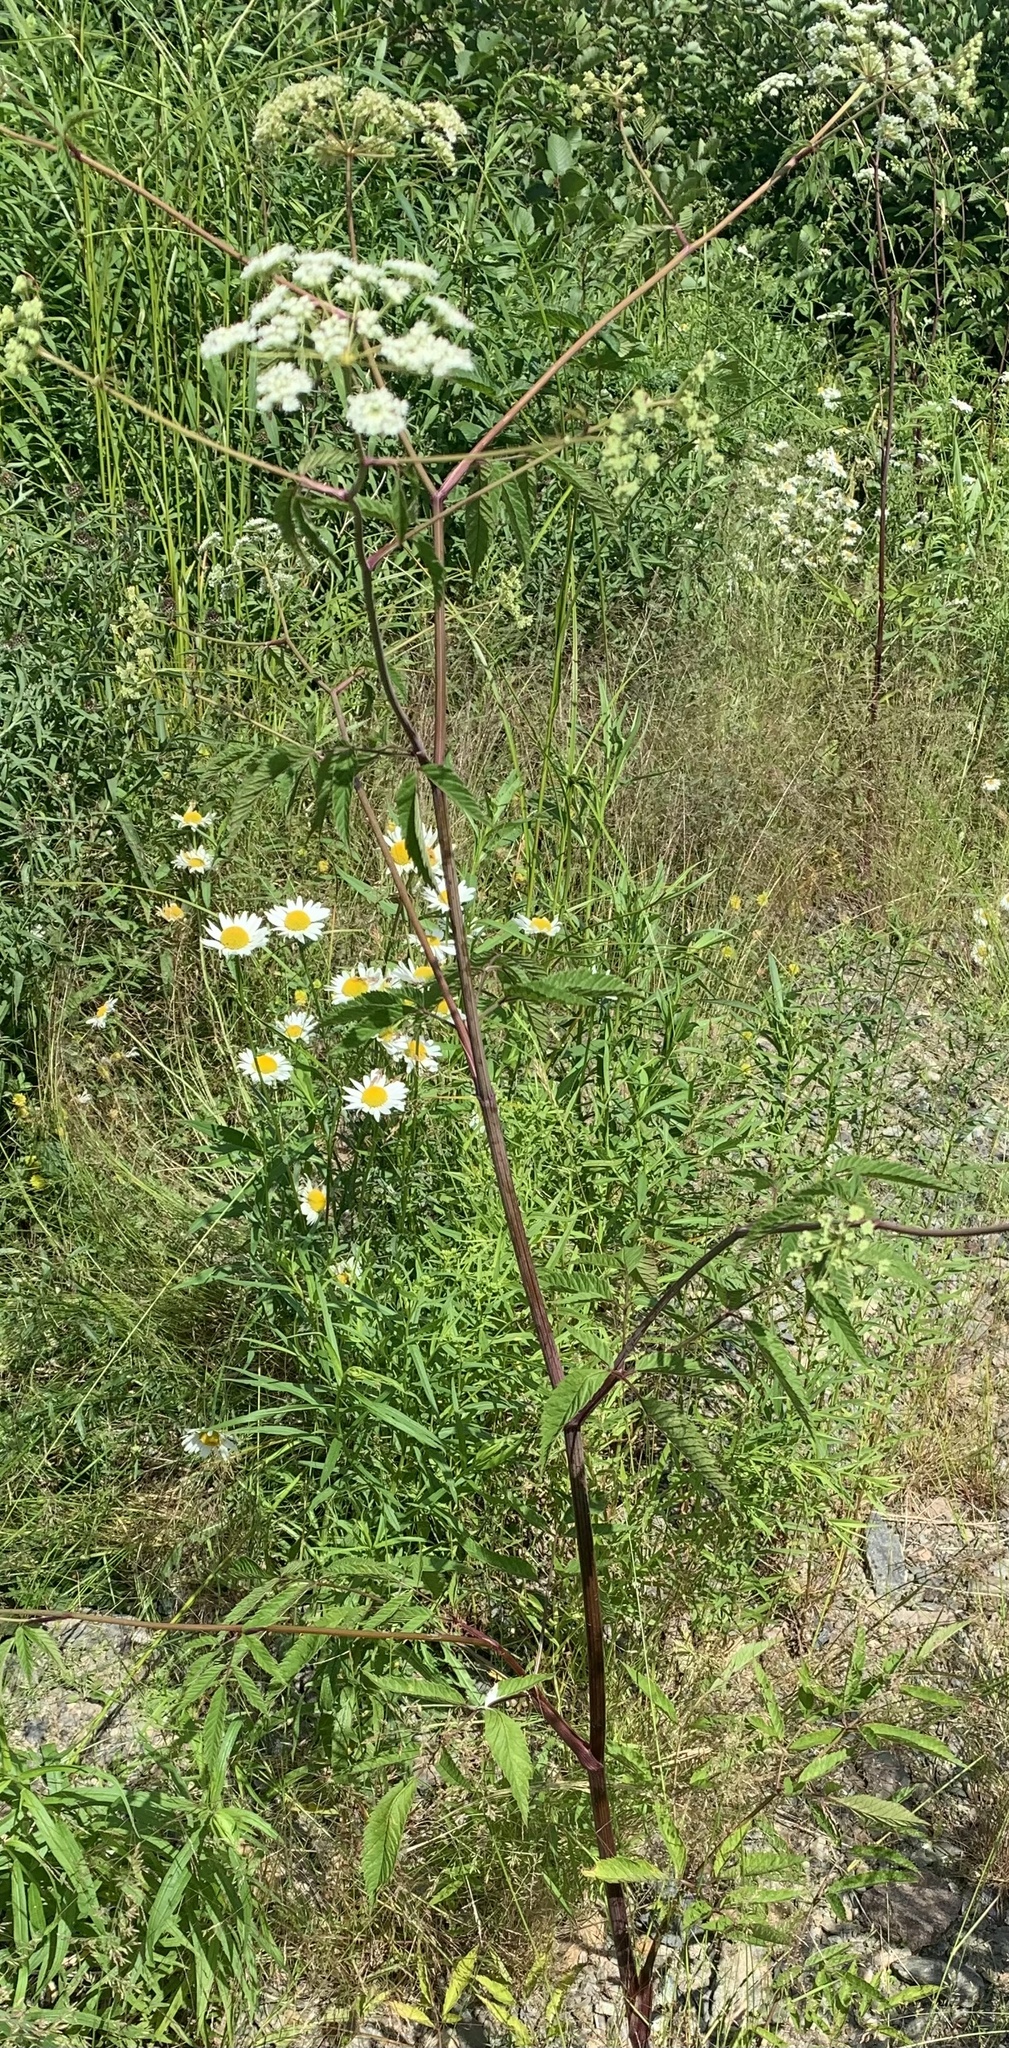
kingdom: Plantae
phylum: Tracheophyta
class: Magnoliopsida
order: Apiales
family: Apiaceae
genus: Cicuta
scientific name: Cicuta maculata
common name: Spotted cowbane
